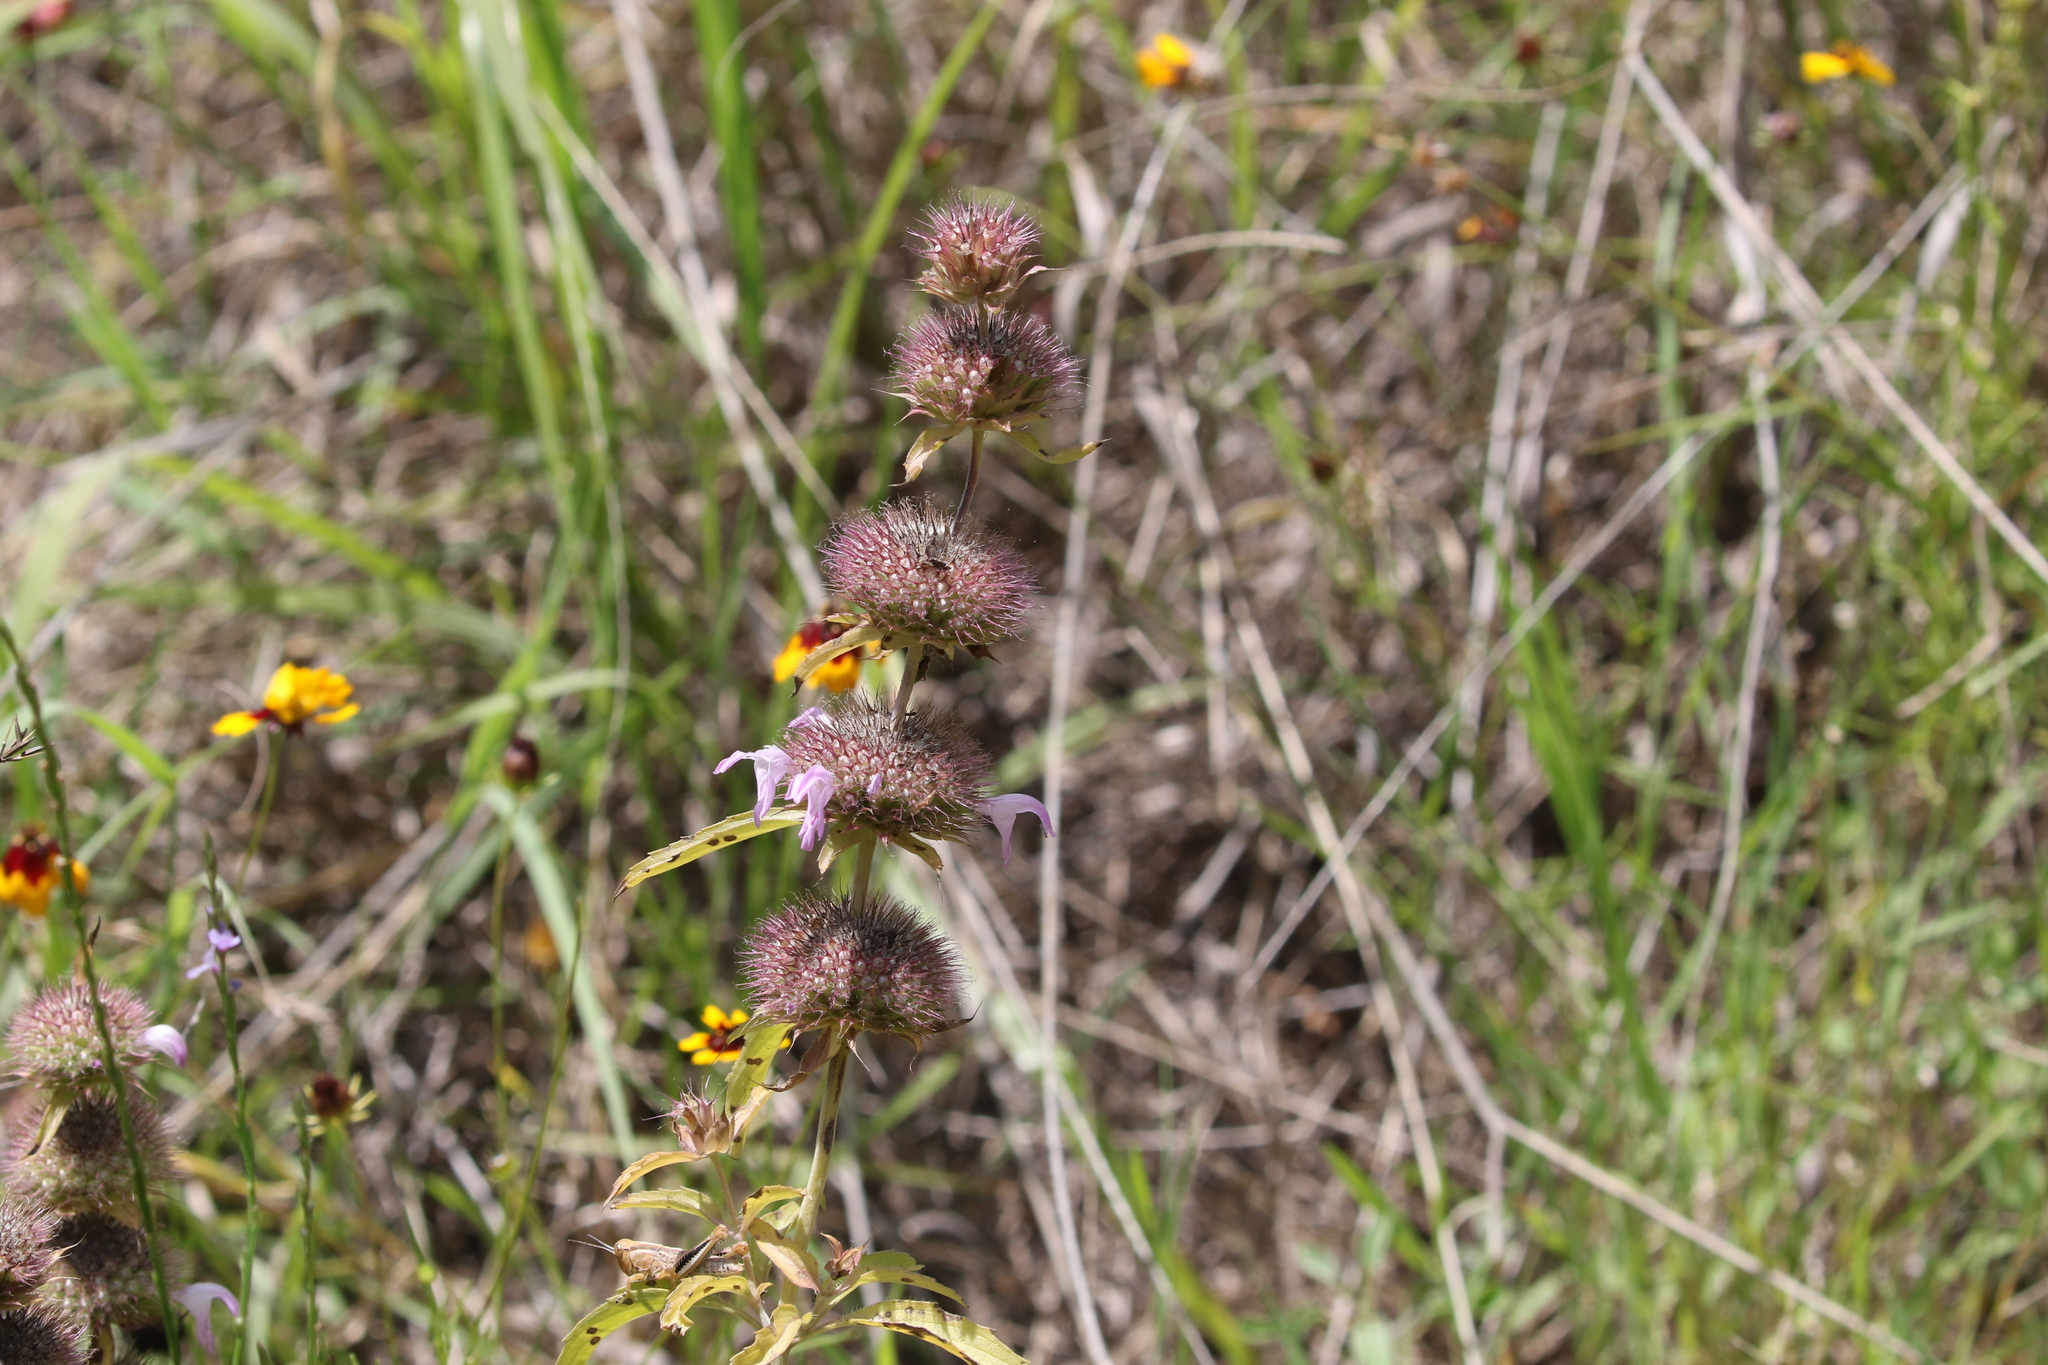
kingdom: Plantae
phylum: Tracheophyta
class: Magnoliopsida
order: Lamiales
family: Lamiaceae
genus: Monarda
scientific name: Monarda clinopodioides
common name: Basil beebalm
